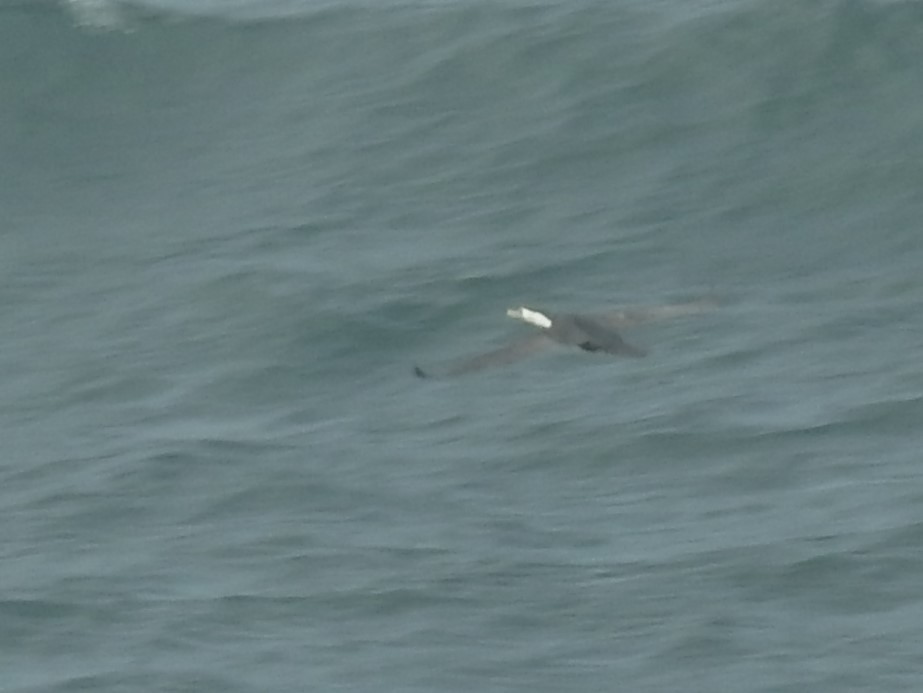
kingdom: Animalia
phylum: Chordata
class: Aves
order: Suliformes
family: Phalacrocoracidae
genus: Phalacrocorax
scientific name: Phalacrocorax varius
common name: Pied cormorant
